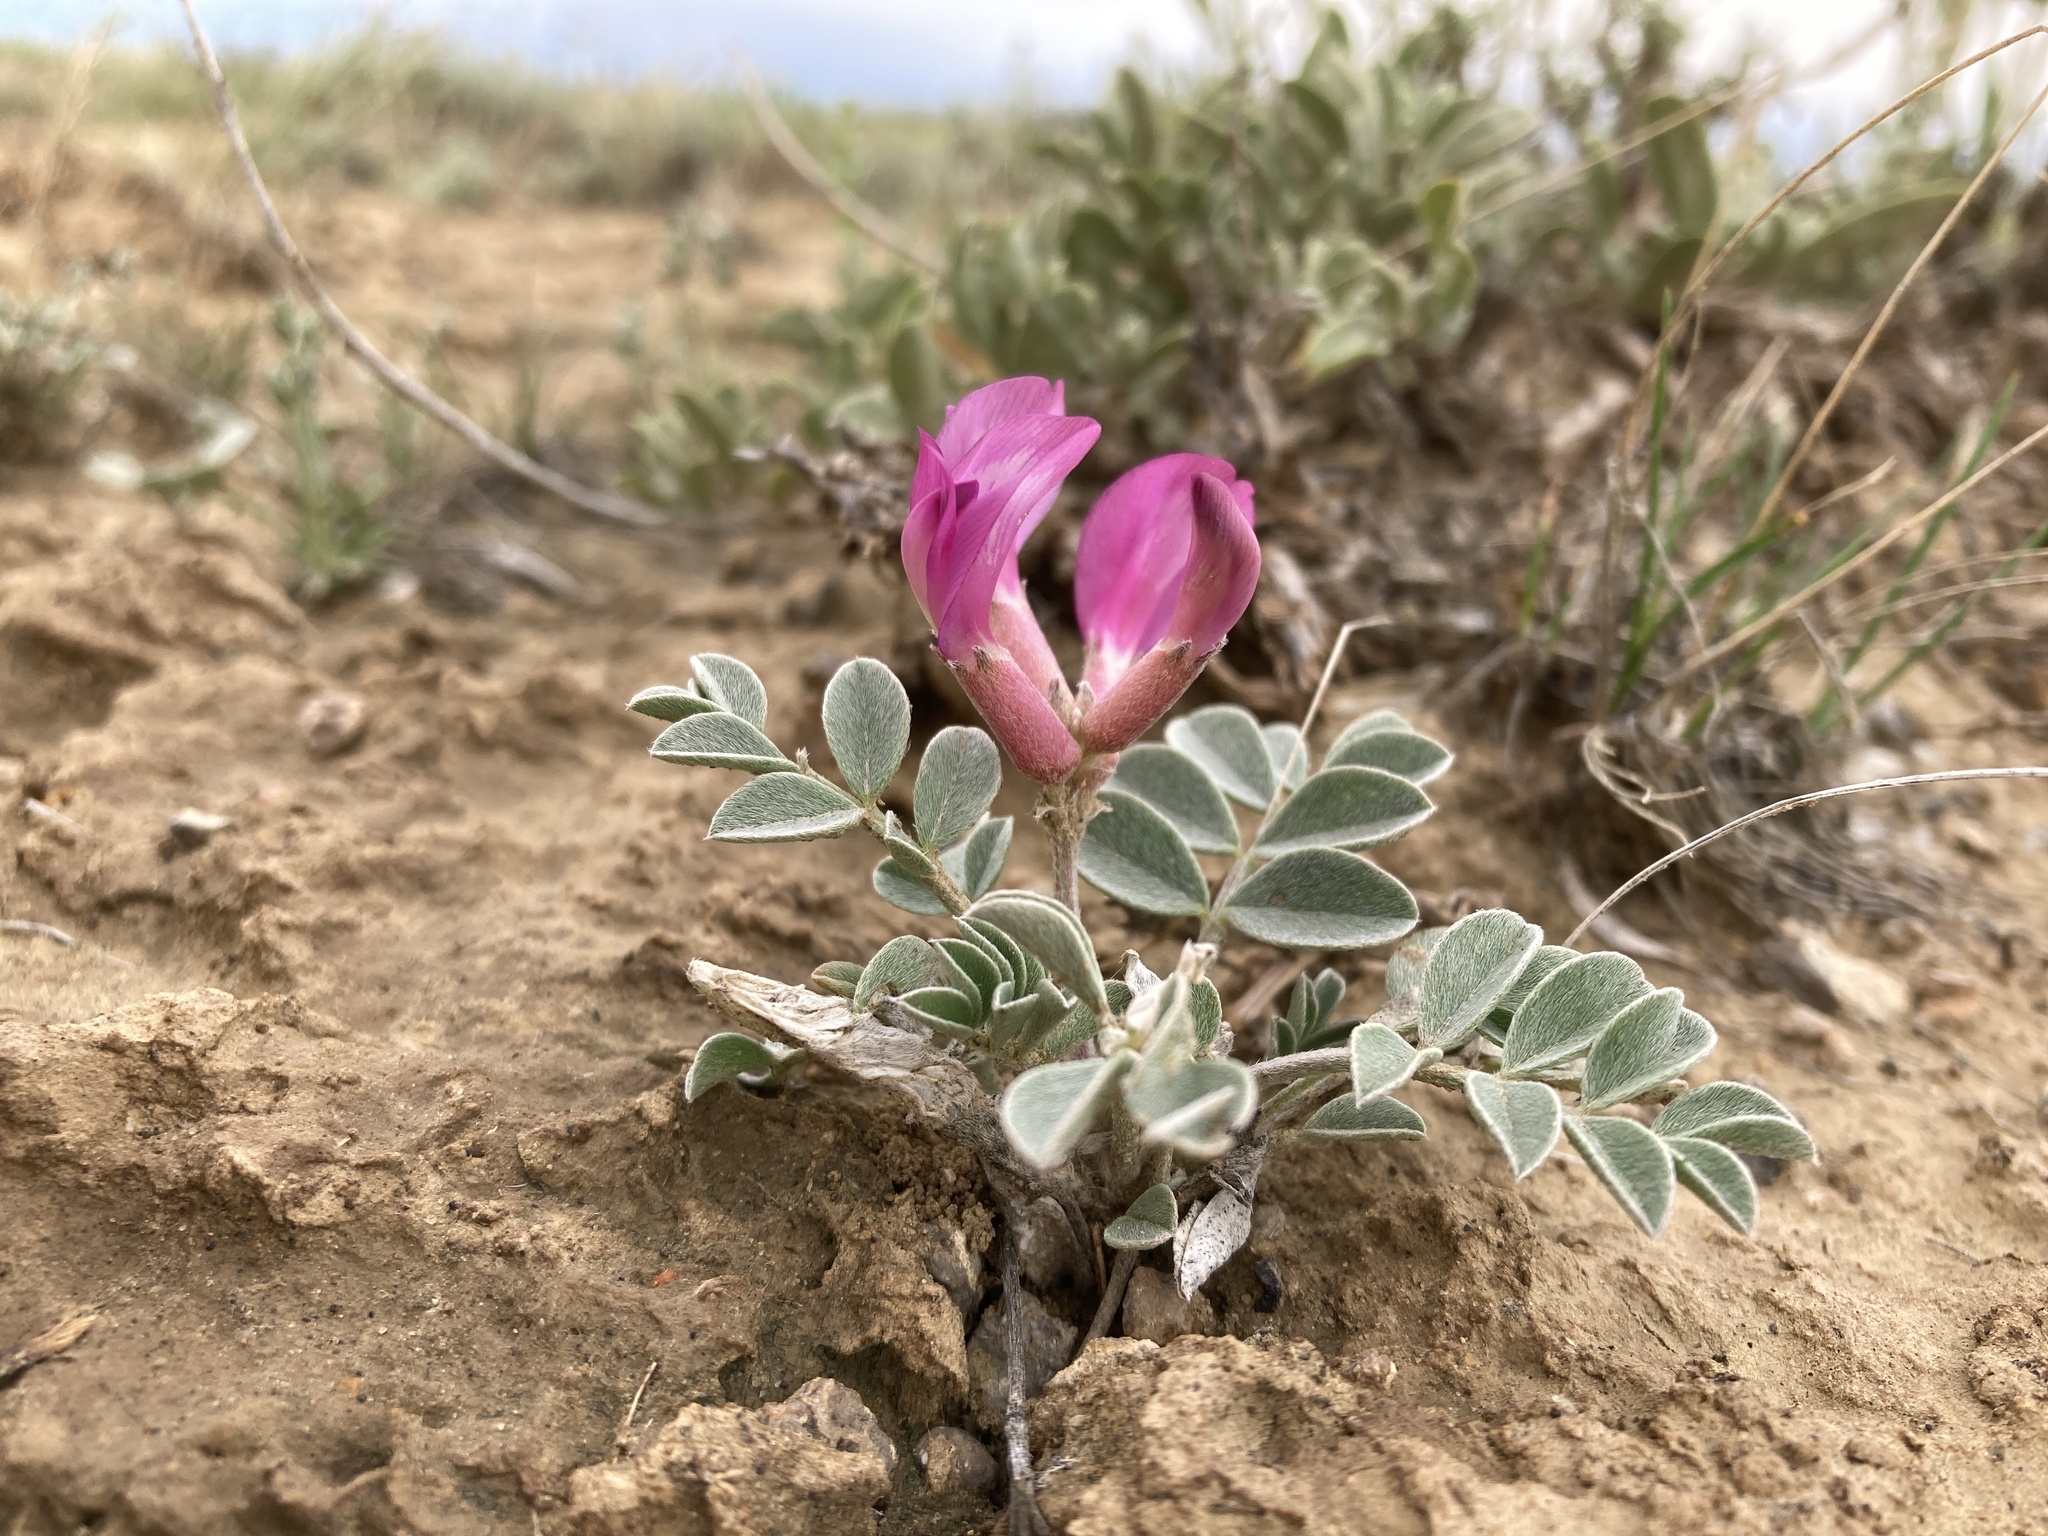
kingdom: Plantae
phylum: Tracheophyta
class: Magnoliopsida
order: Fabales
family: Fabaceae
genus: Astragalus
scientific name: Astragalus chamaeleuce
